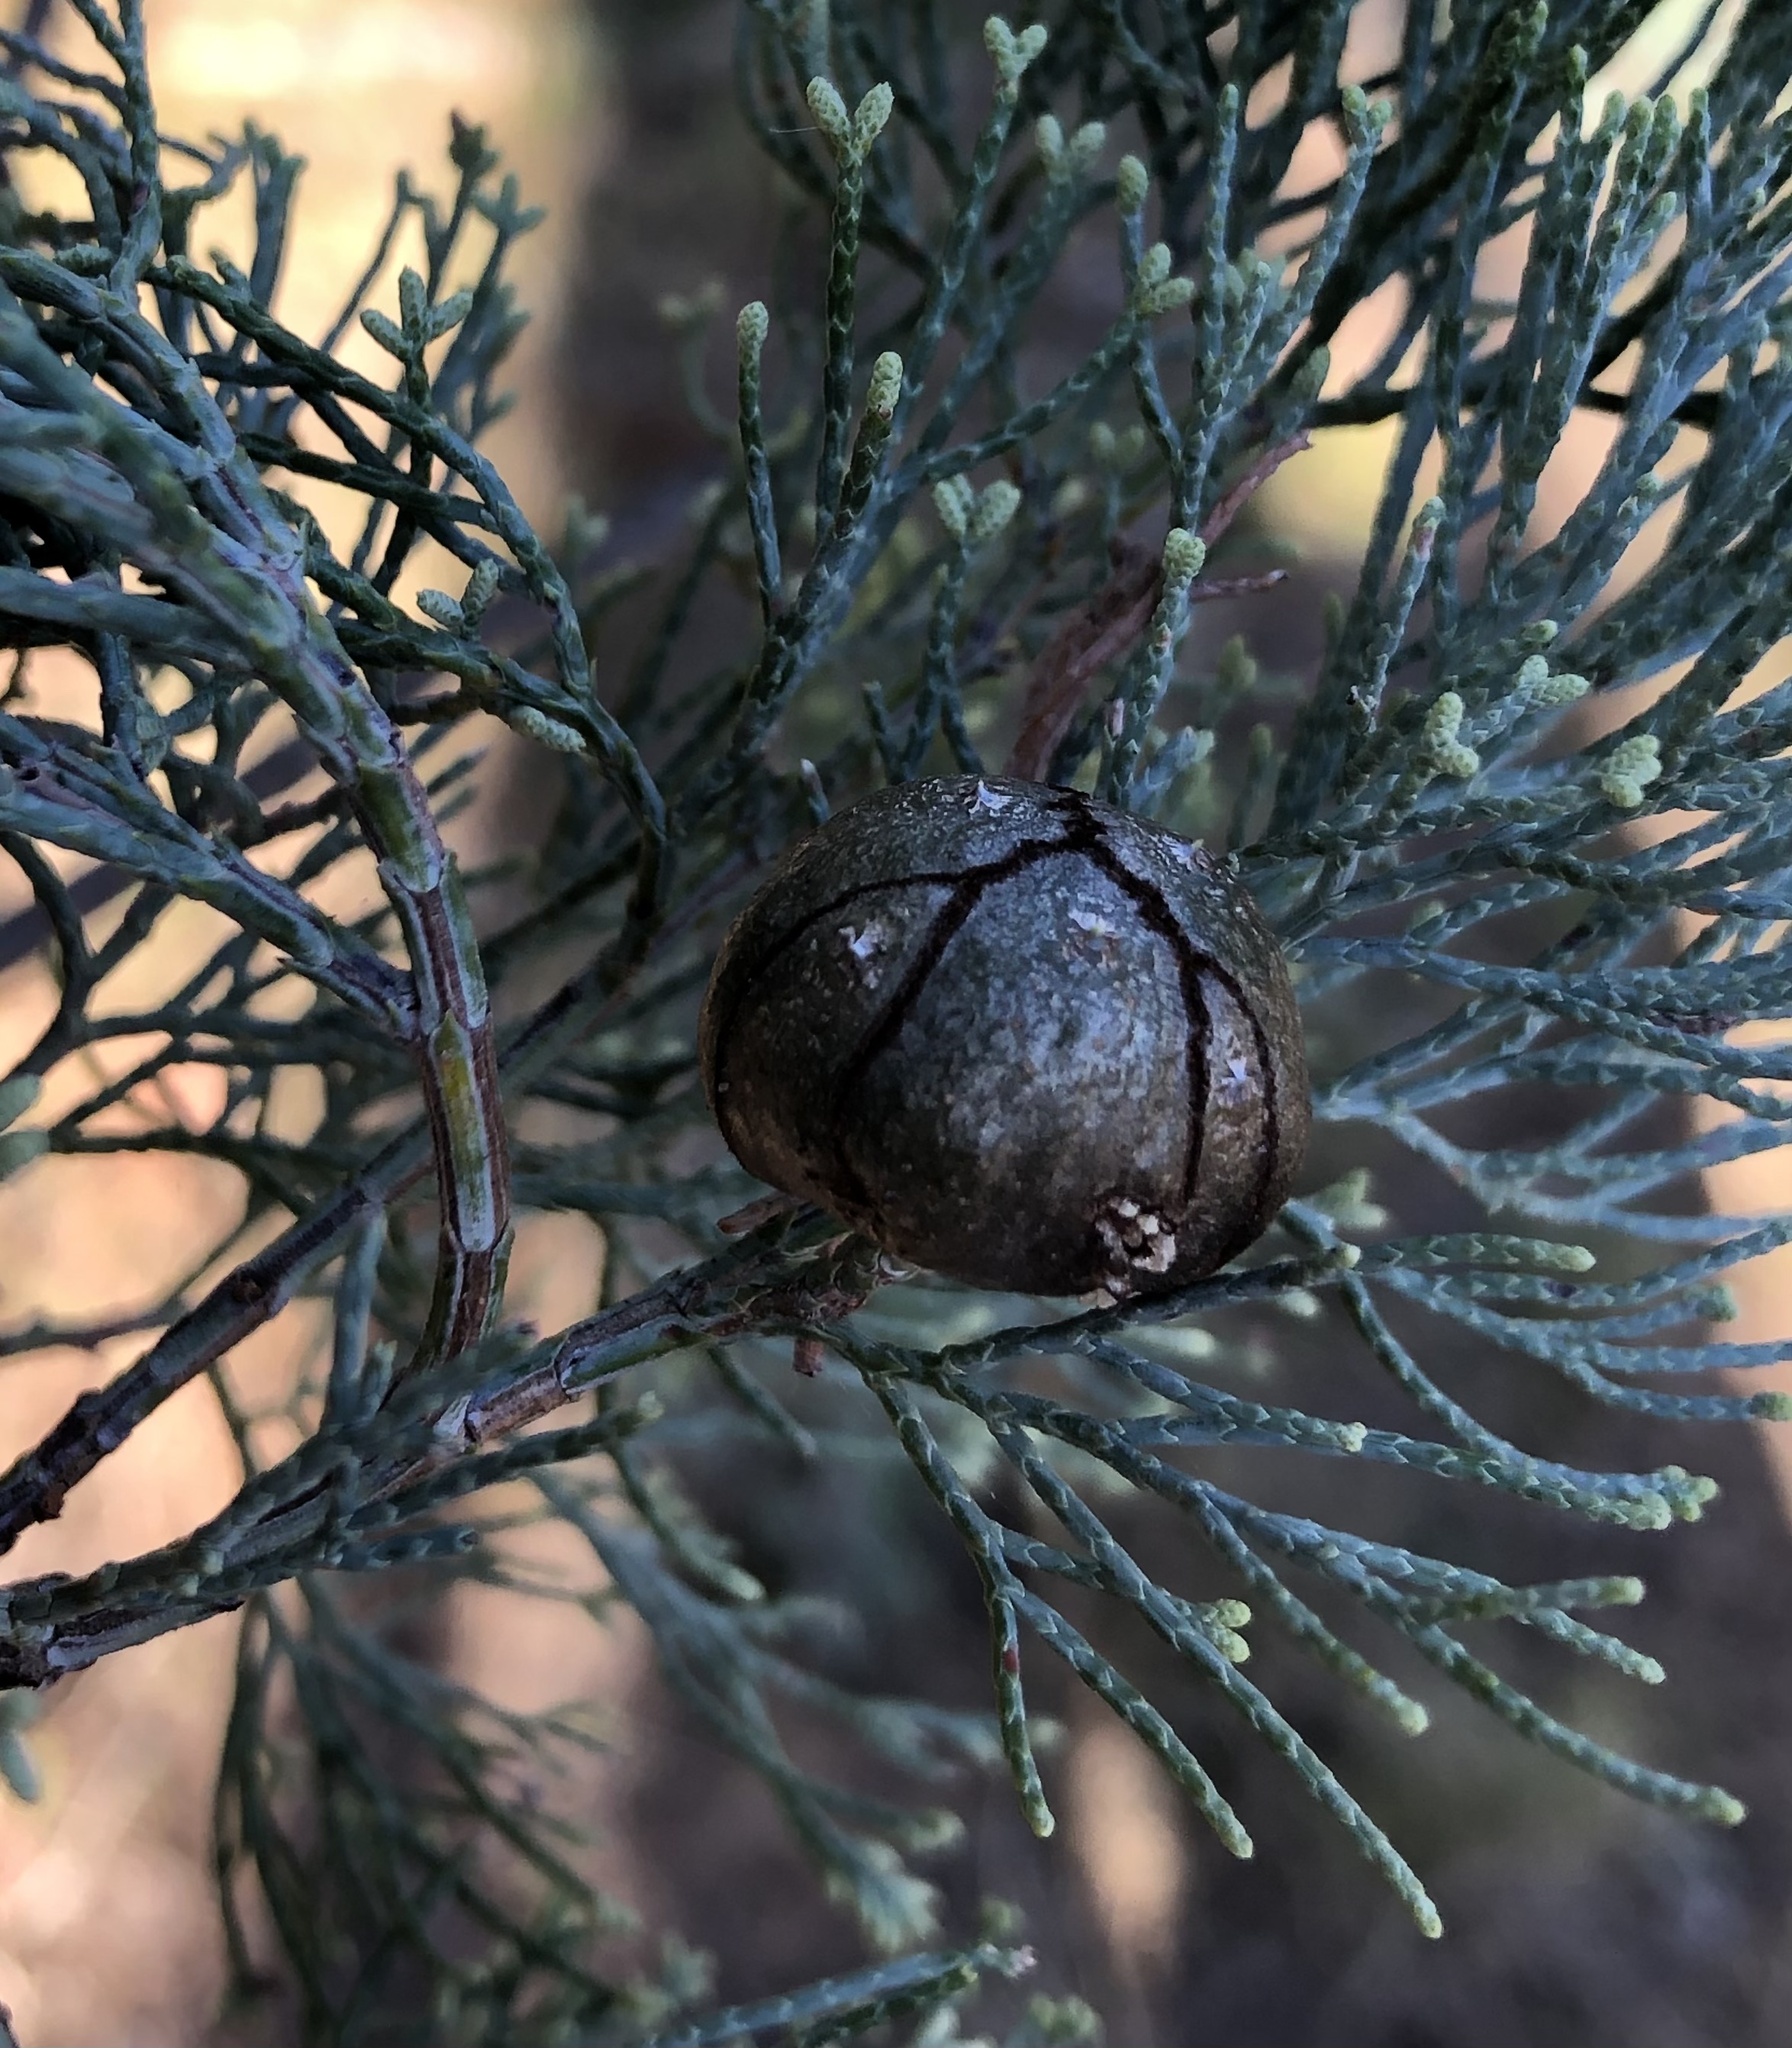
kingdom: Plantae
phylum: Tracheophyta
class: Pinopsida
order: Pinales
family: Cupressaceae
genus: Callitris
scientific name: Callitris columellaris
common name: White cypress-pine
